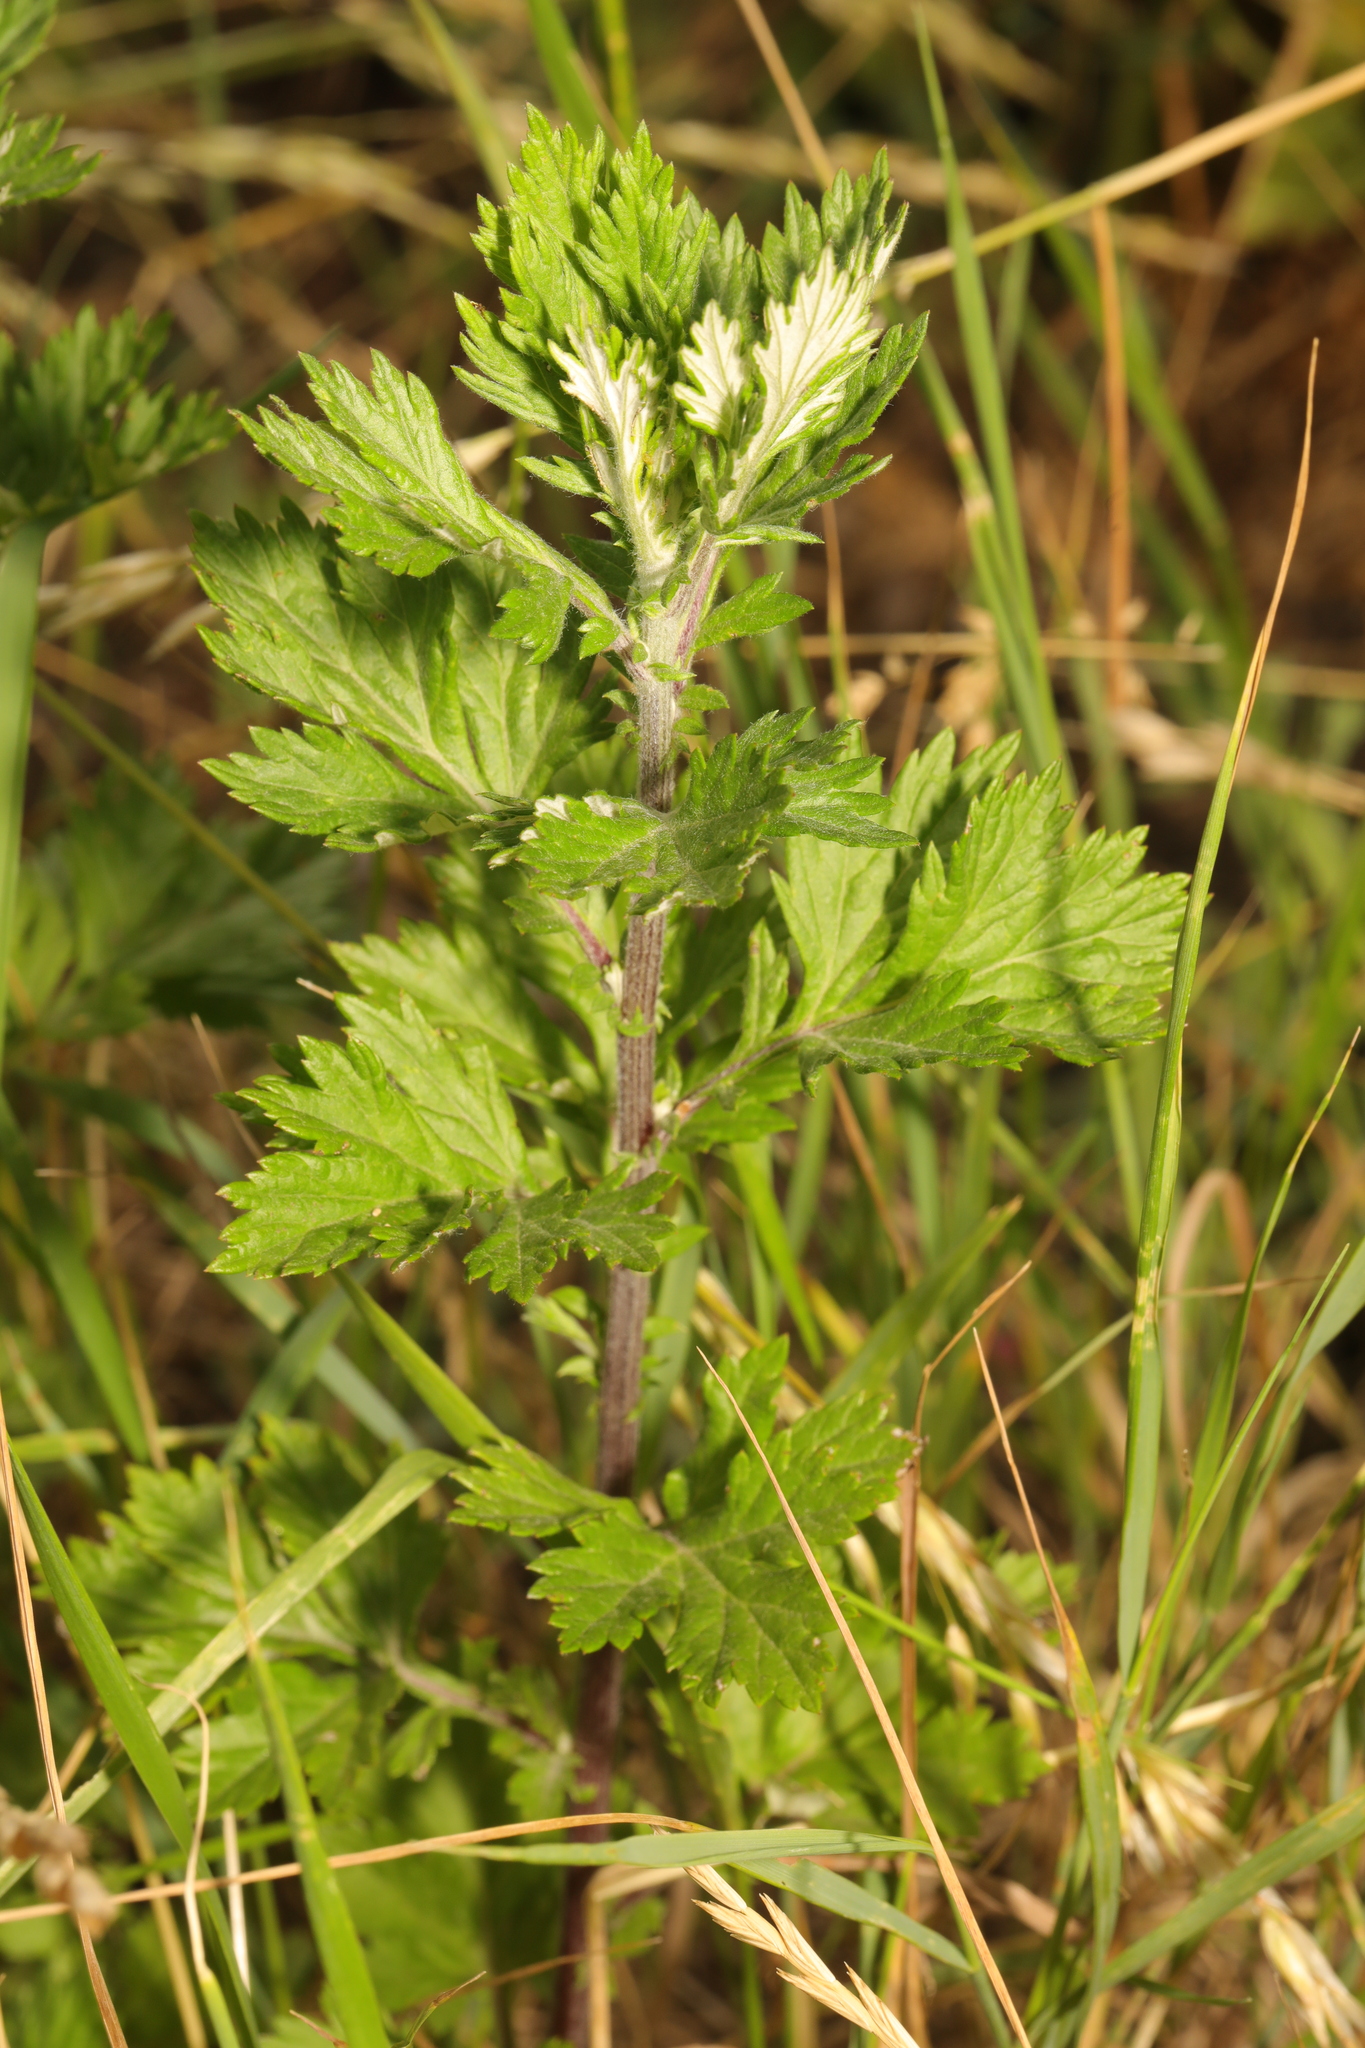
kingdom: Plantae
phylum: Tracheophyta
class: Magnoliopsida
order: Asterales
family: Asteraceae
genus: Artemisia
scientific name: Artemisia vulgaris
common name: Mugwort
